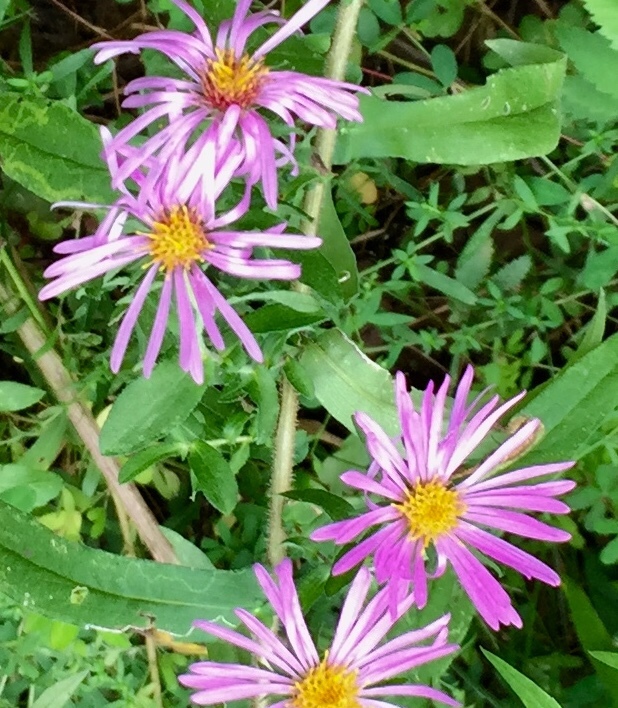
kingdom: Plantae
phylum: Tracheophyta
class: Magnoliopsida
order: Asterales
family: Asteraceae
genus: Symphyotrichum
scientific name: Symphyotrichum novae-angliae
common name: Michaelmas daisy
